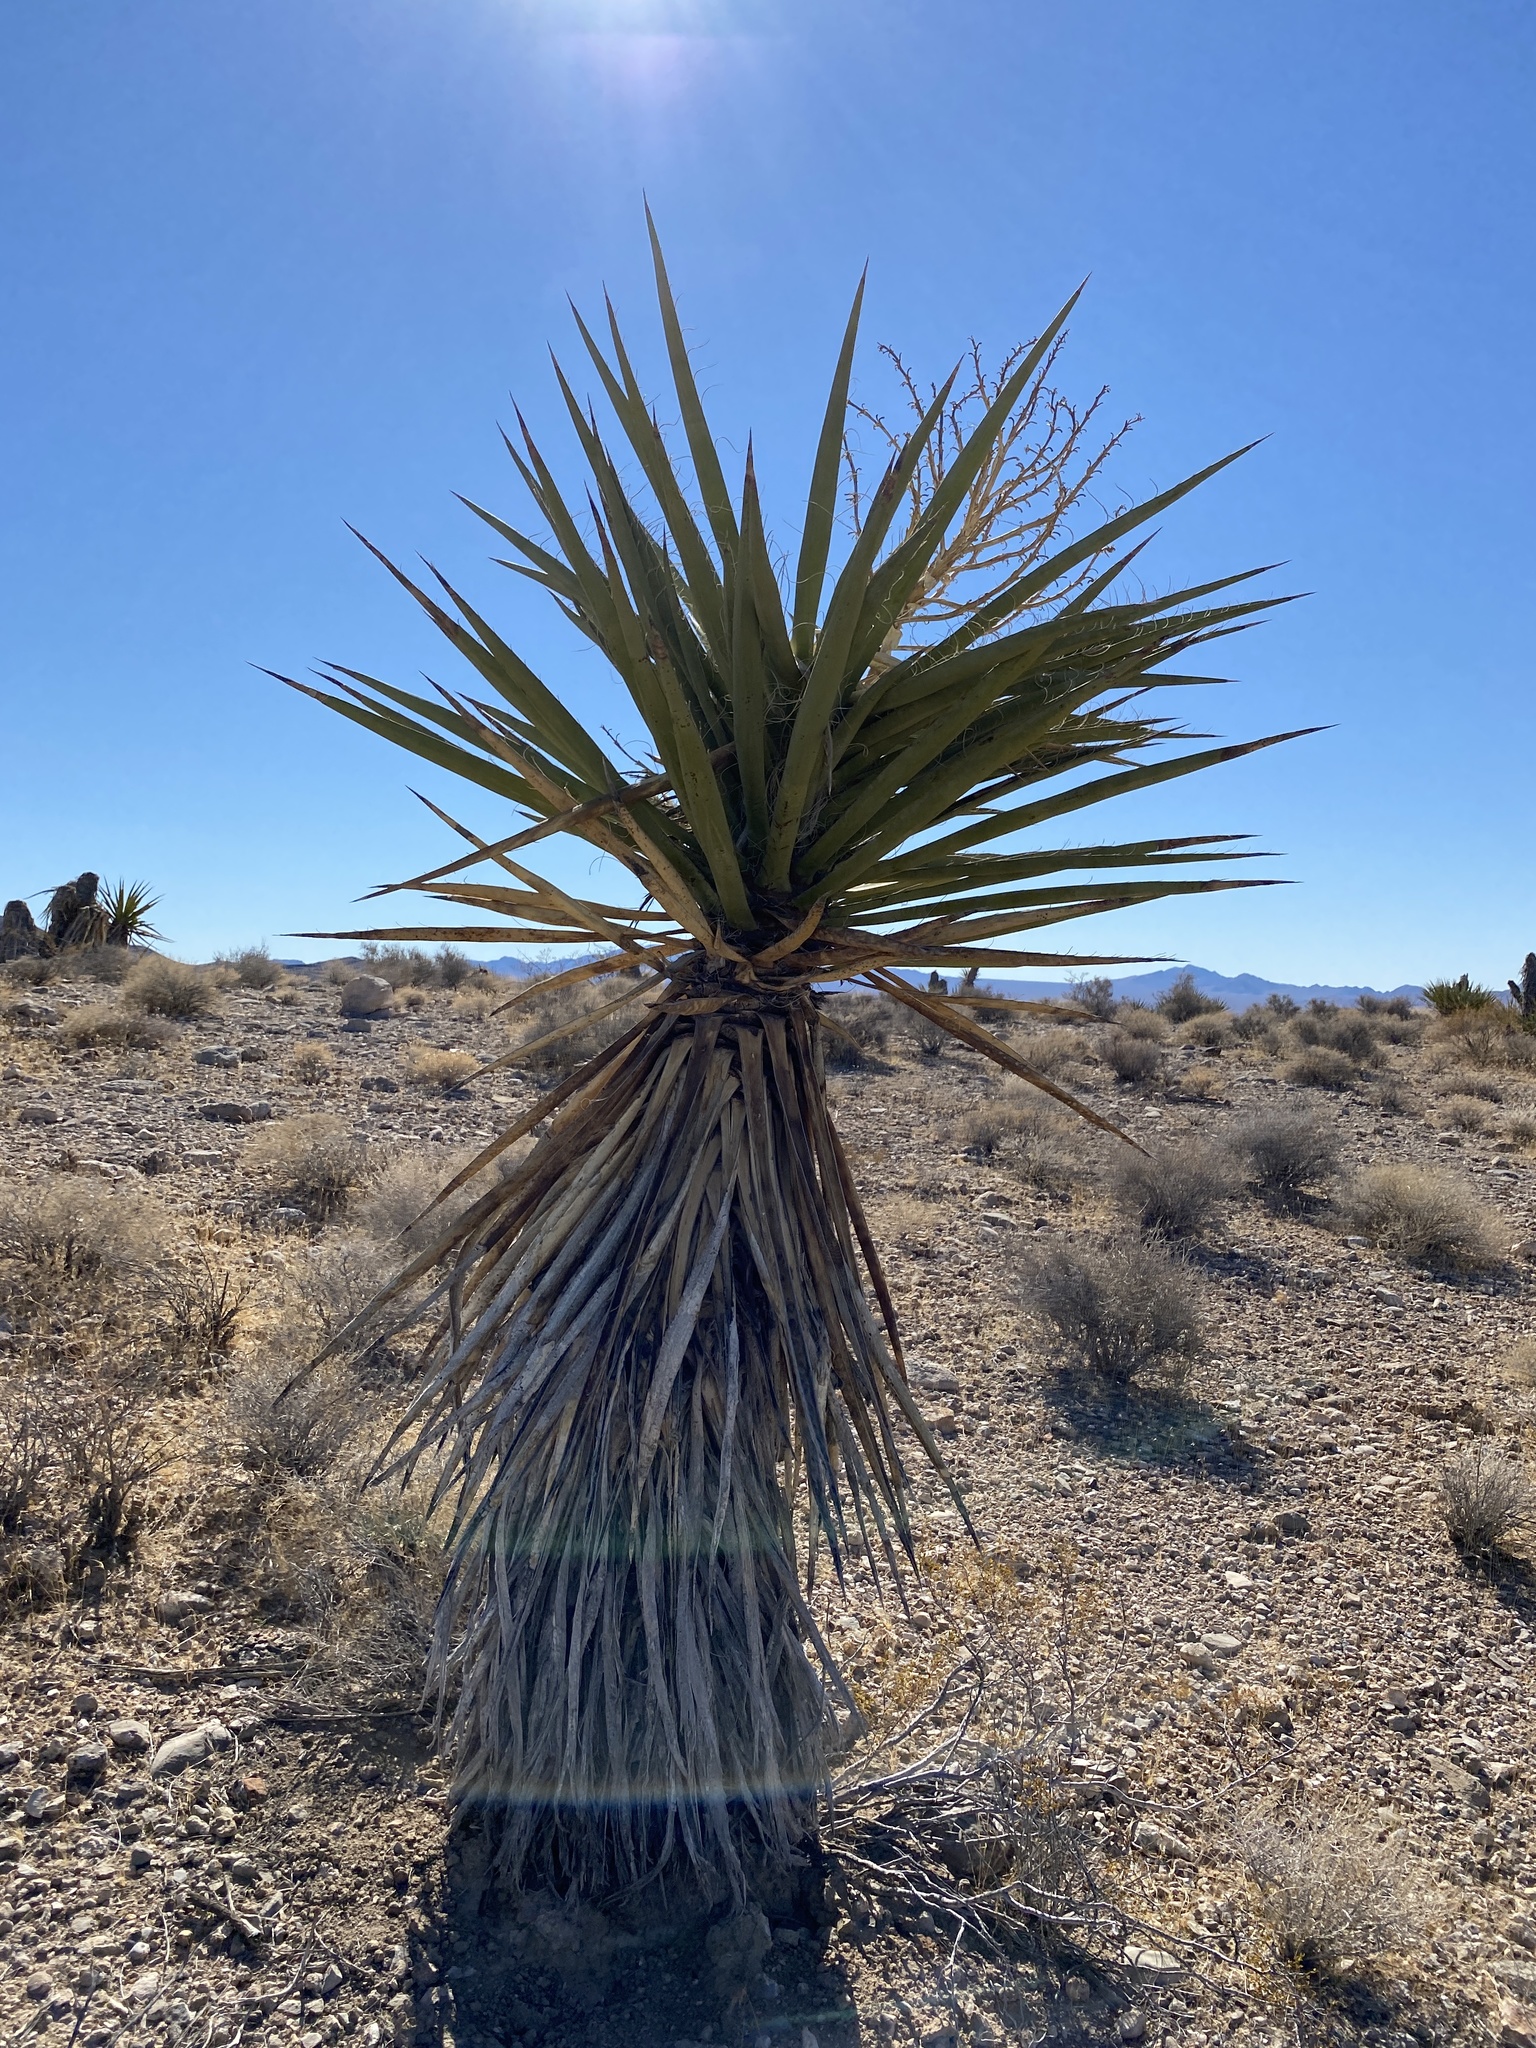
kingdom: Plantae
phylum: Tracheophyta
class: Liliopsida
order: Asparagales
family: Asparagaceae
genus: Yucca
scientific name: Yucca schidigera
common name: Mojave yucca
